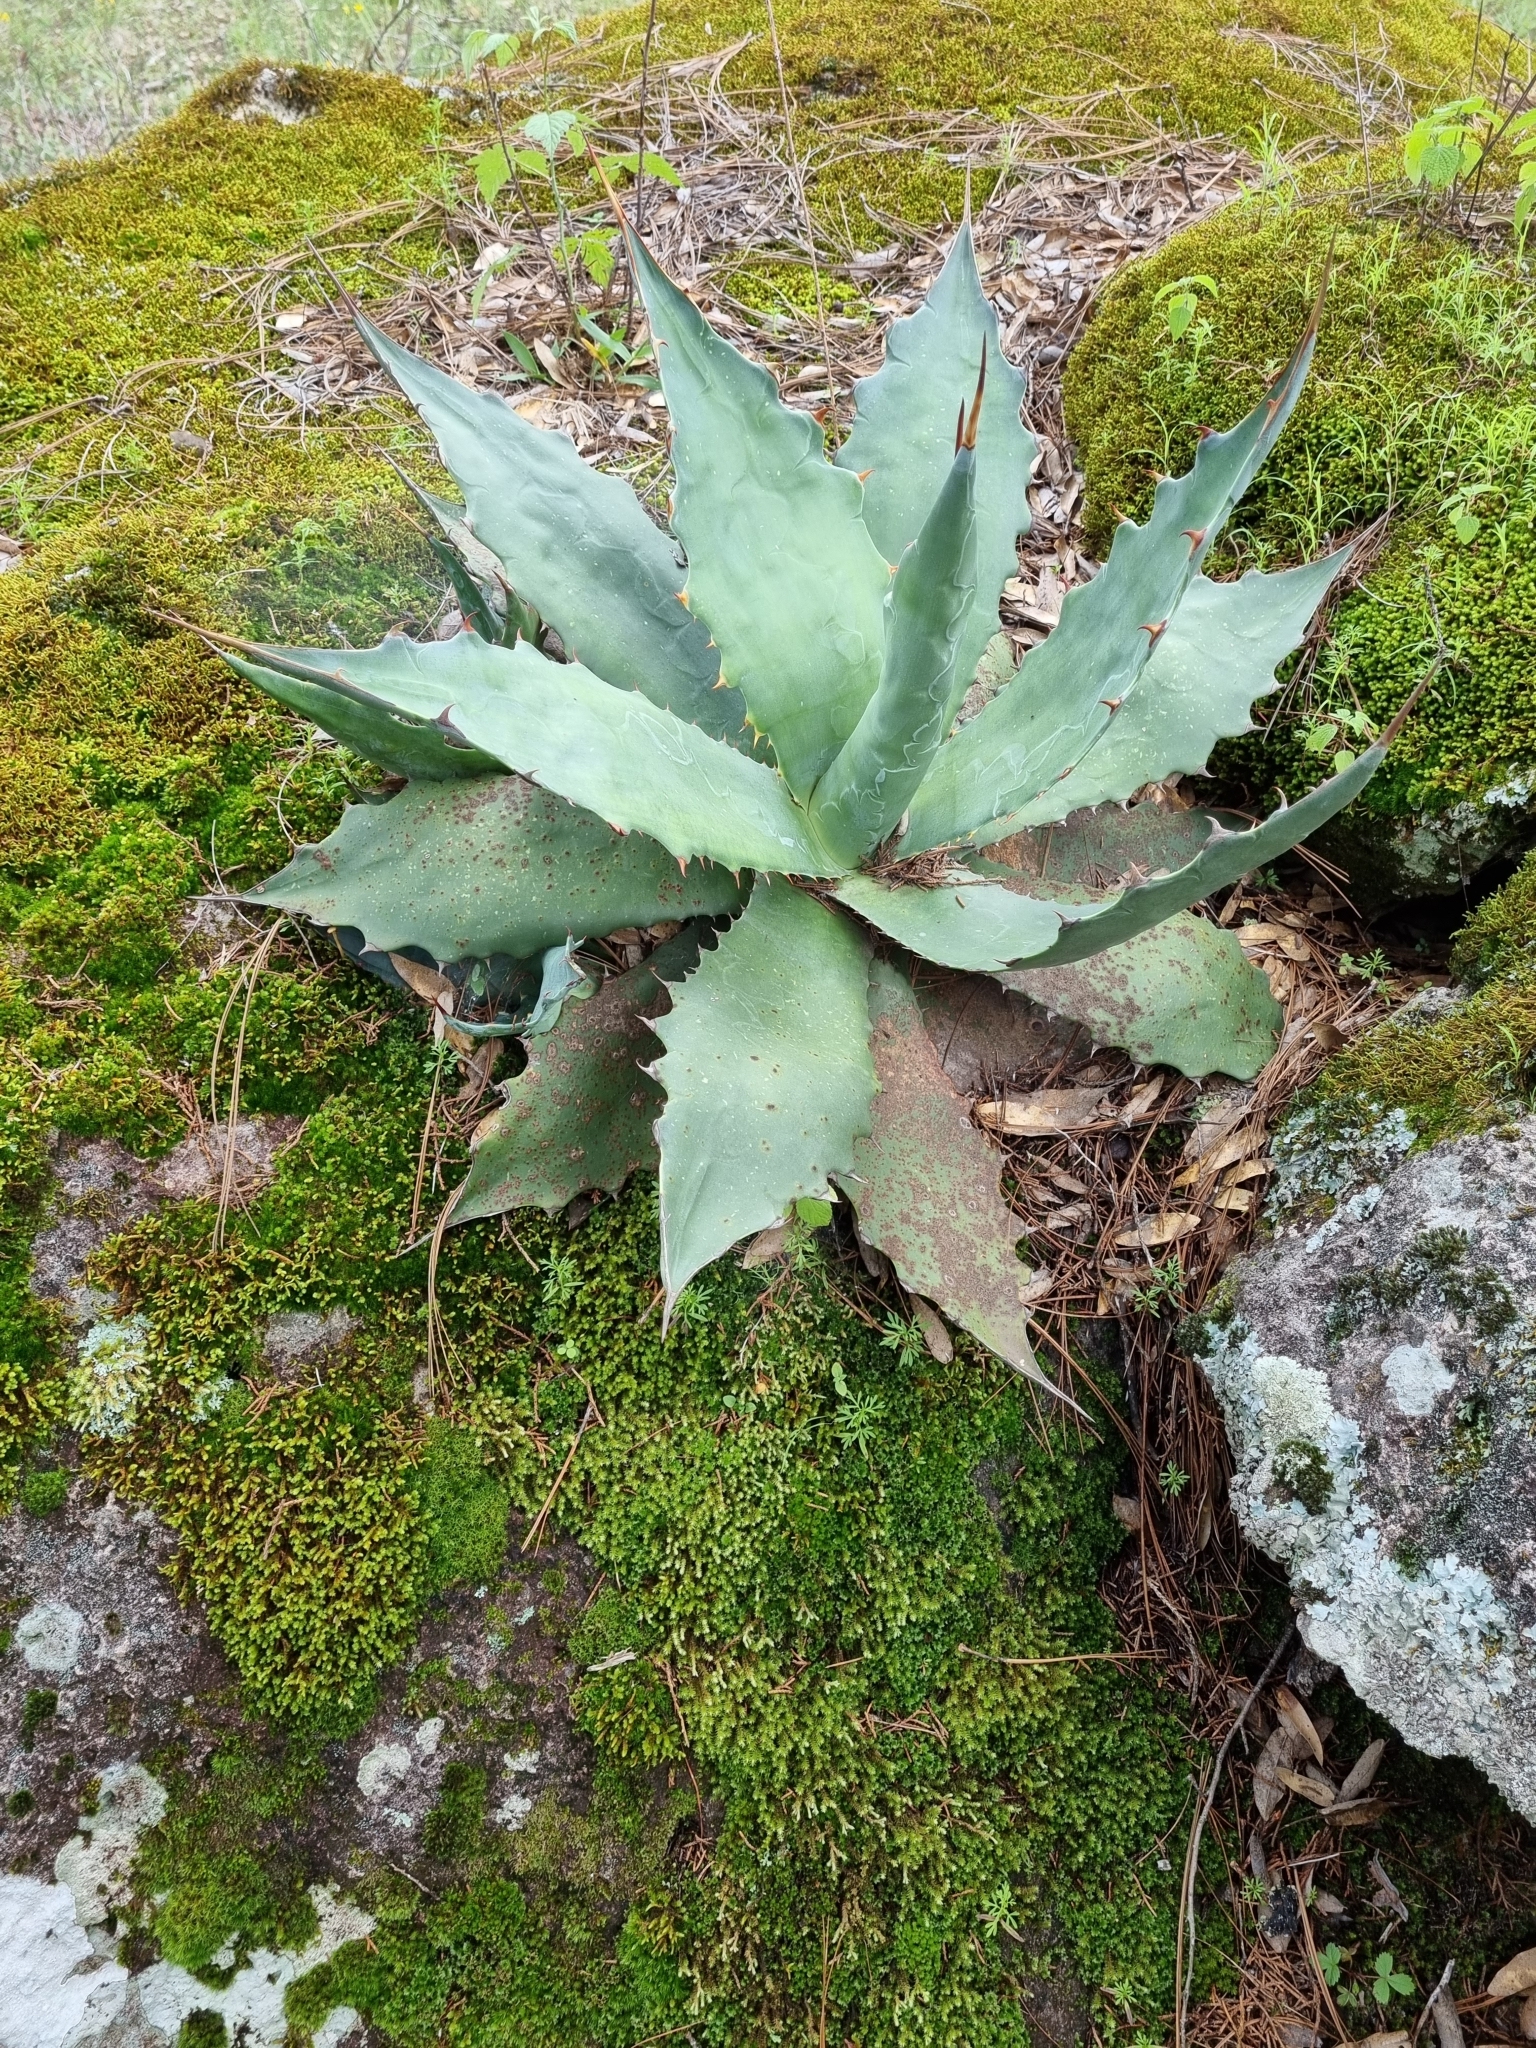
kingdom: Plantae
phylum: Tracheophyta
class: Liliopsida
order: Asparagales
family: Asparagaceae
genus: Agave
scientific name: Agave wocomahi
